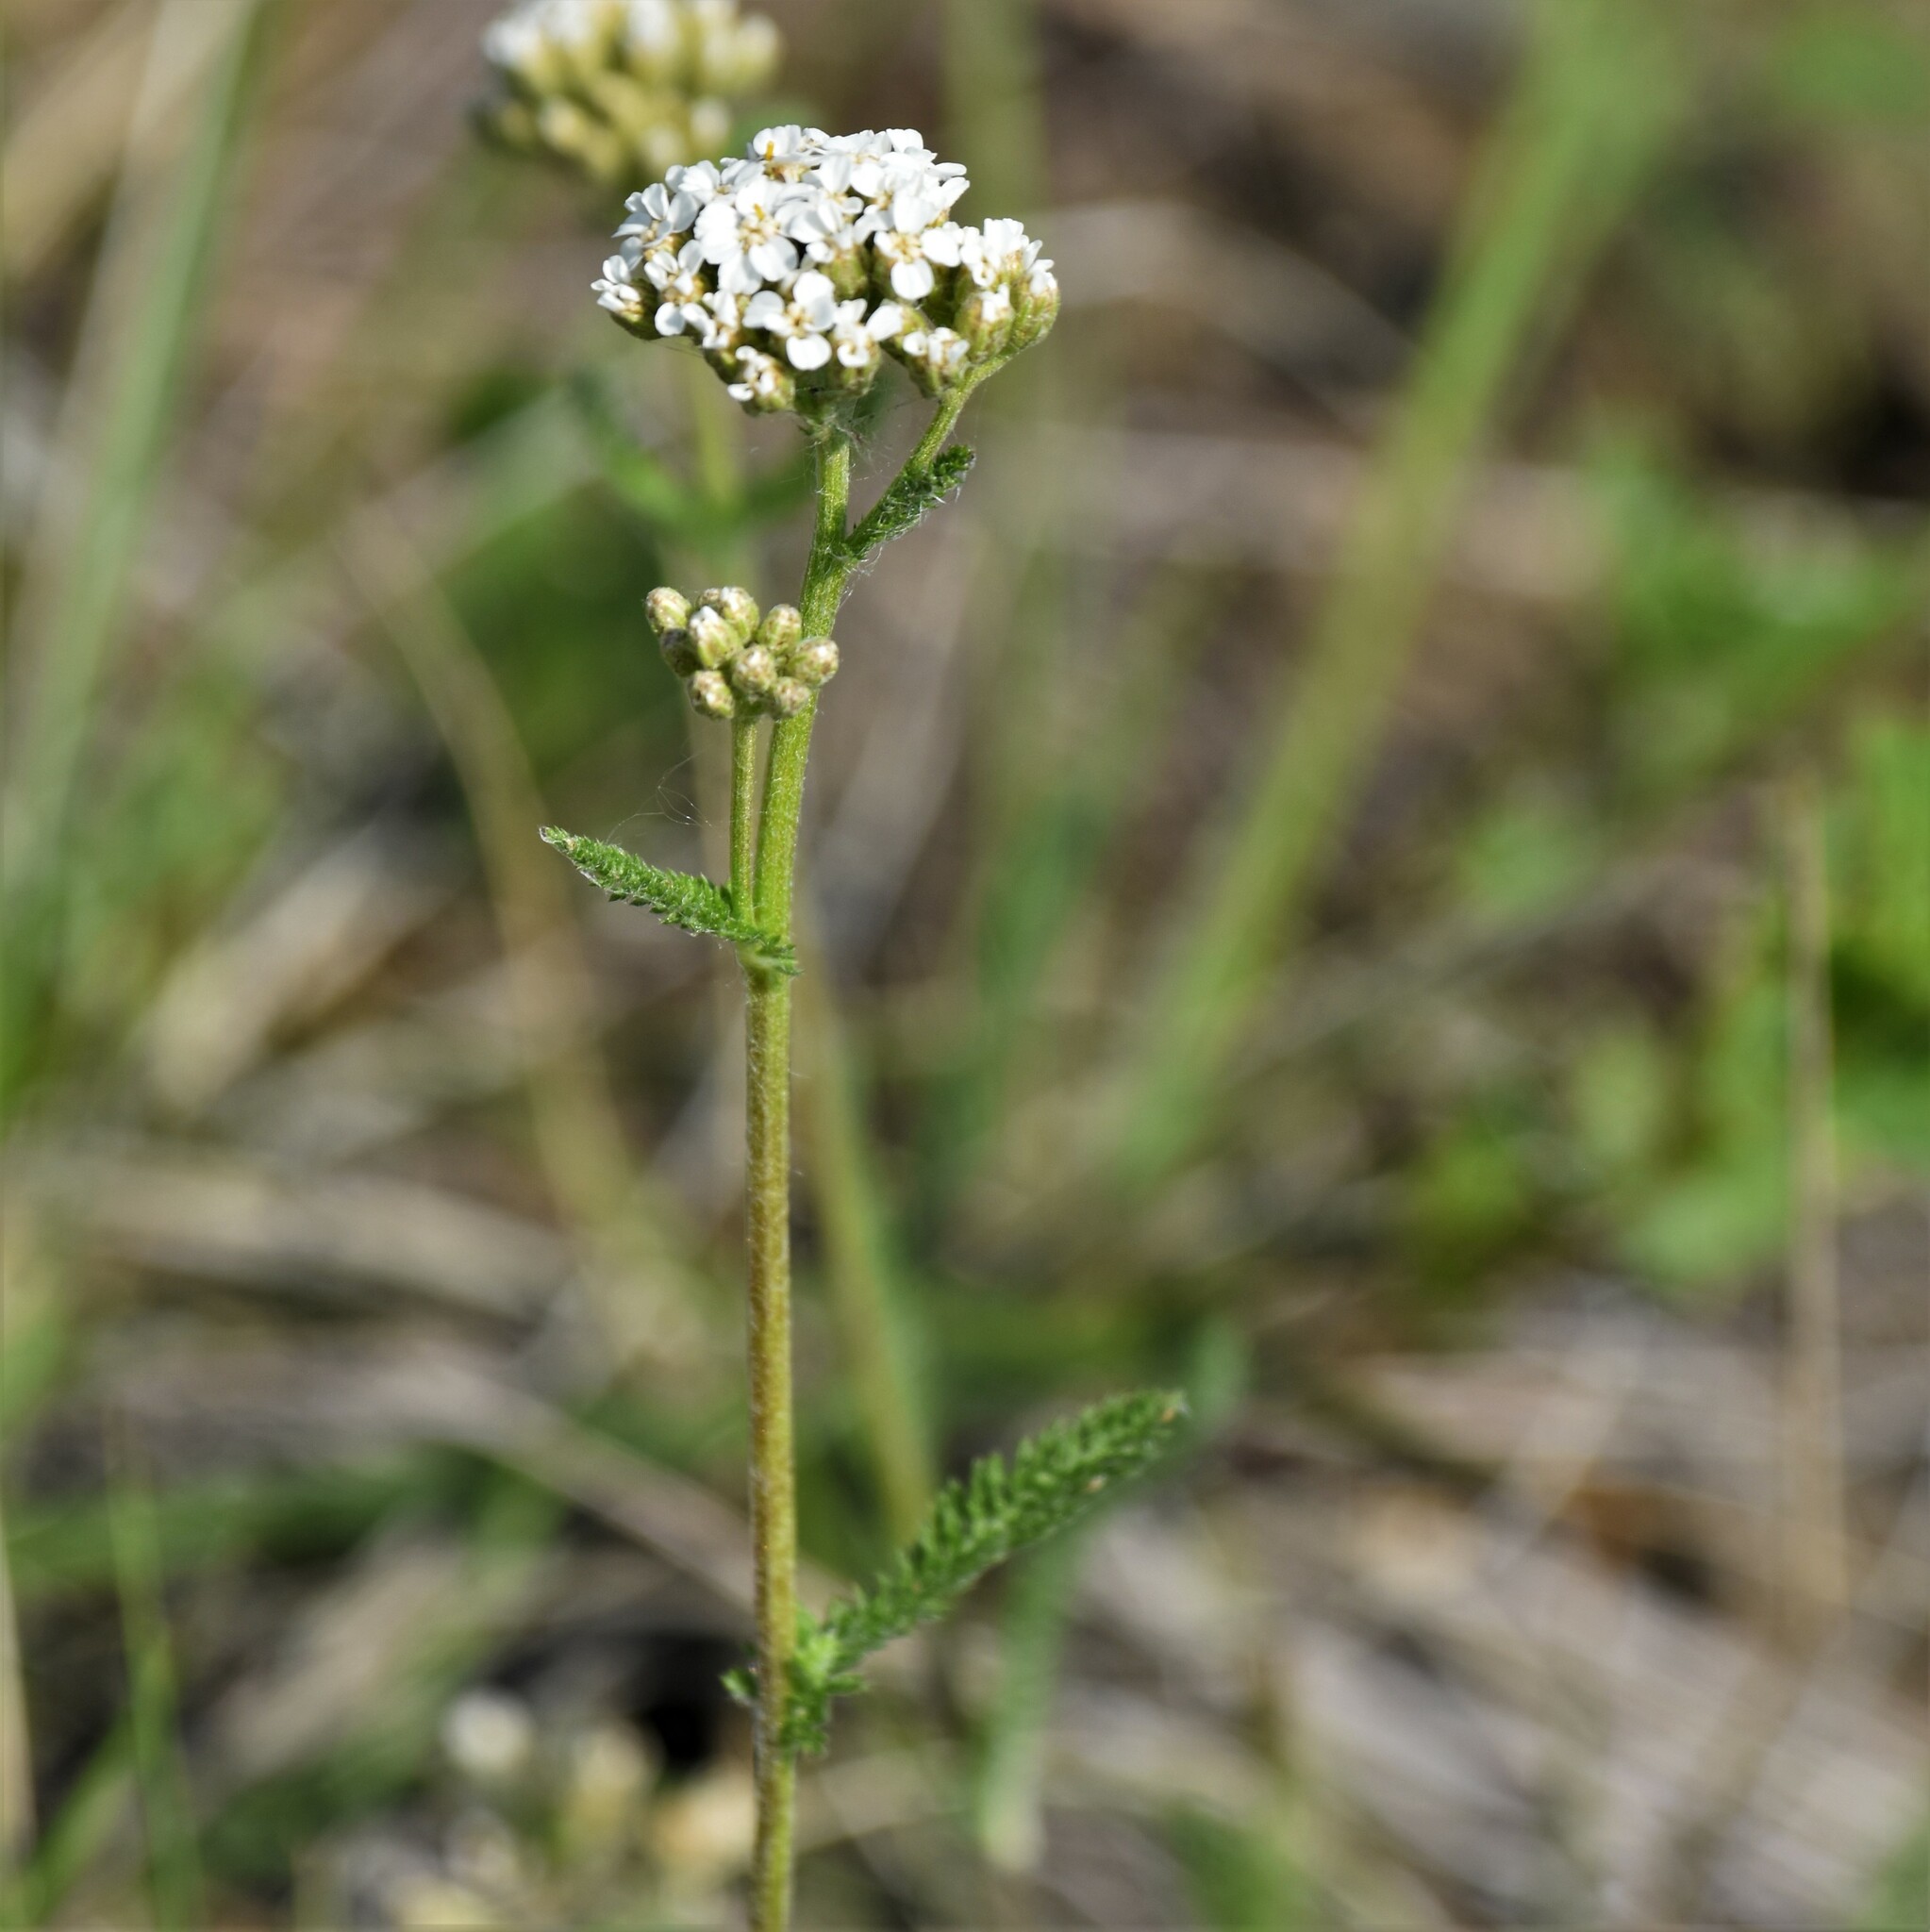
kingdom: Plantae
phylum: Tracheophyta
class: Magnoliopsida
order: Asterales
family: Asteraceae
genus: Achillea
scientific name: Achillea millefolium
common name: Yarrow
